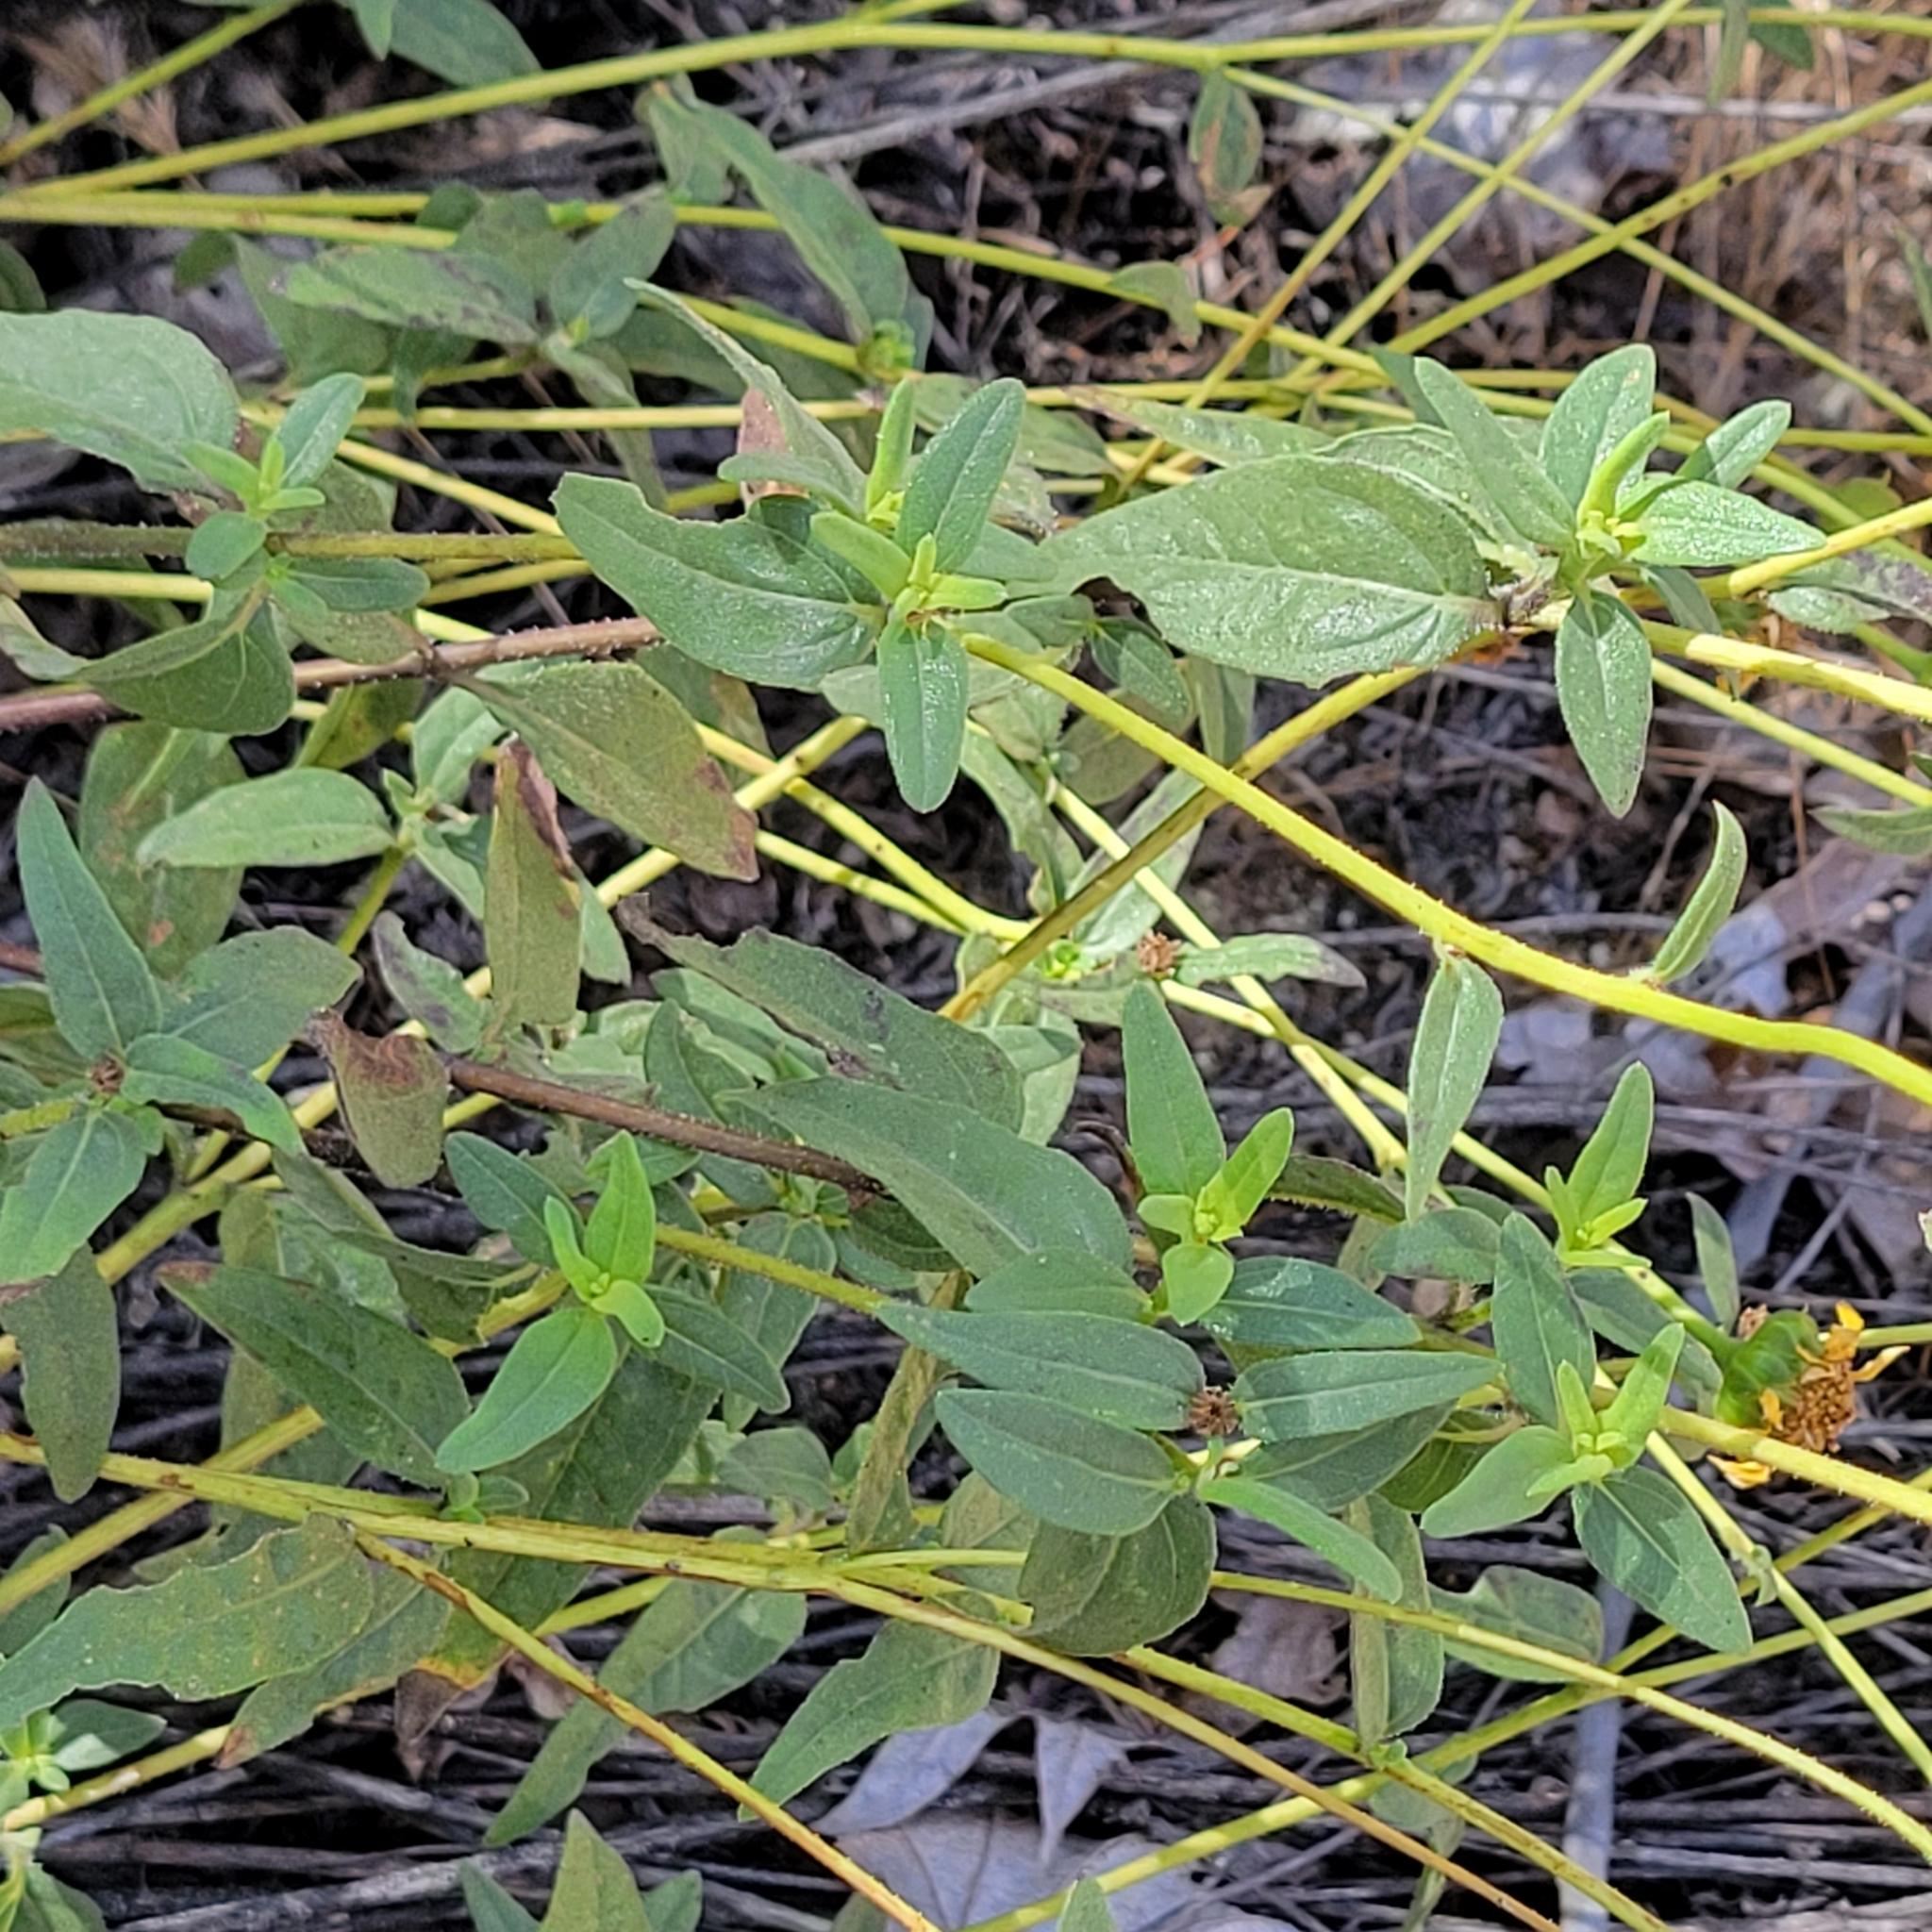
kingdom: Plantae
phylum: Tracheophyta
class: Magnoliopsida
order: Asterales
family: Asteraceae
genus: Helianthus
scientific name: Helianthus gracilentus
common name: Slender sunflower
